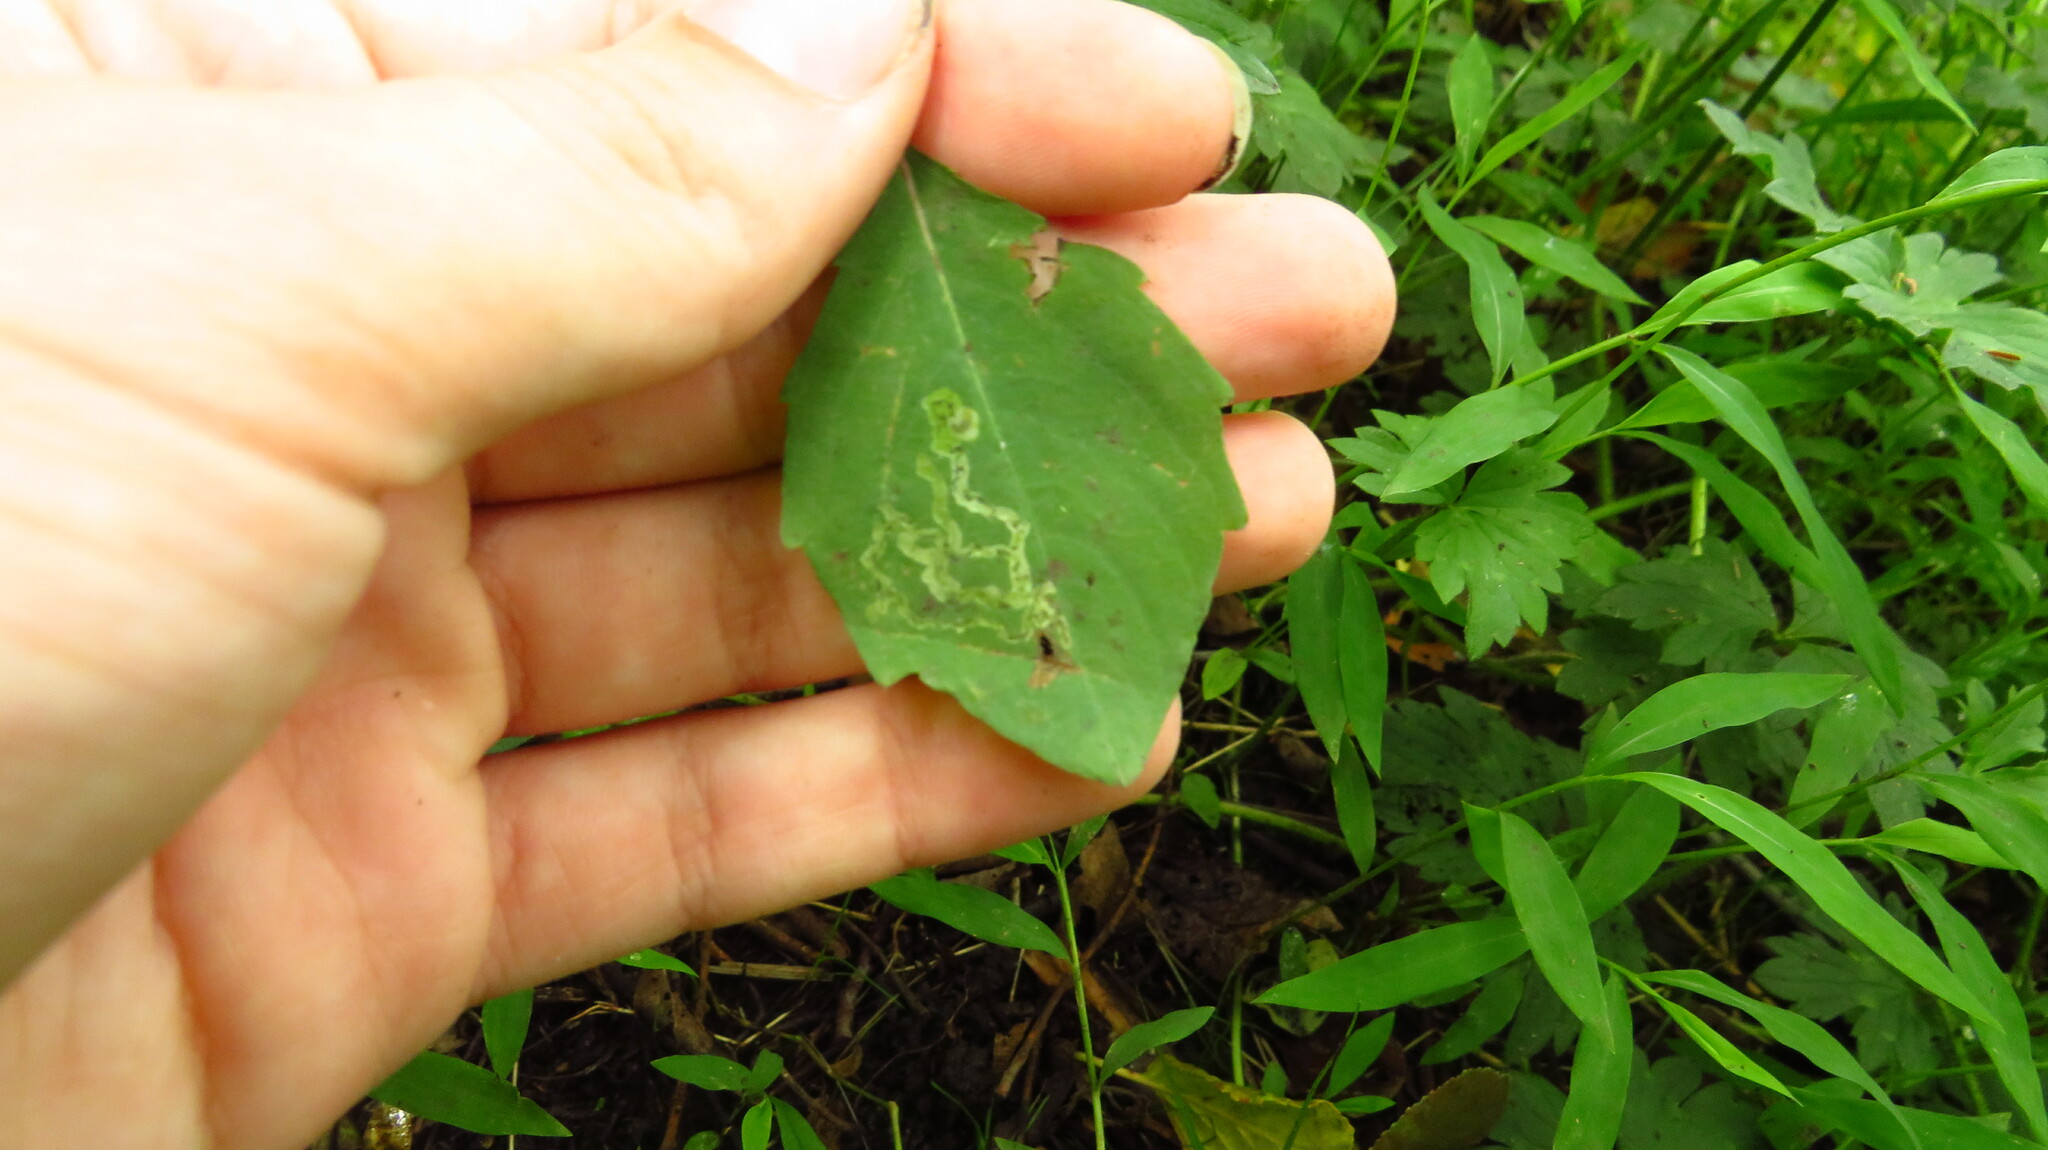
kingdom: Plantae
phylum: Tracheophyta
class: Magnoliopsida
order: Ericales
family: Balsaminaceae
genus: Impatiens
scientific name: Impatiens
